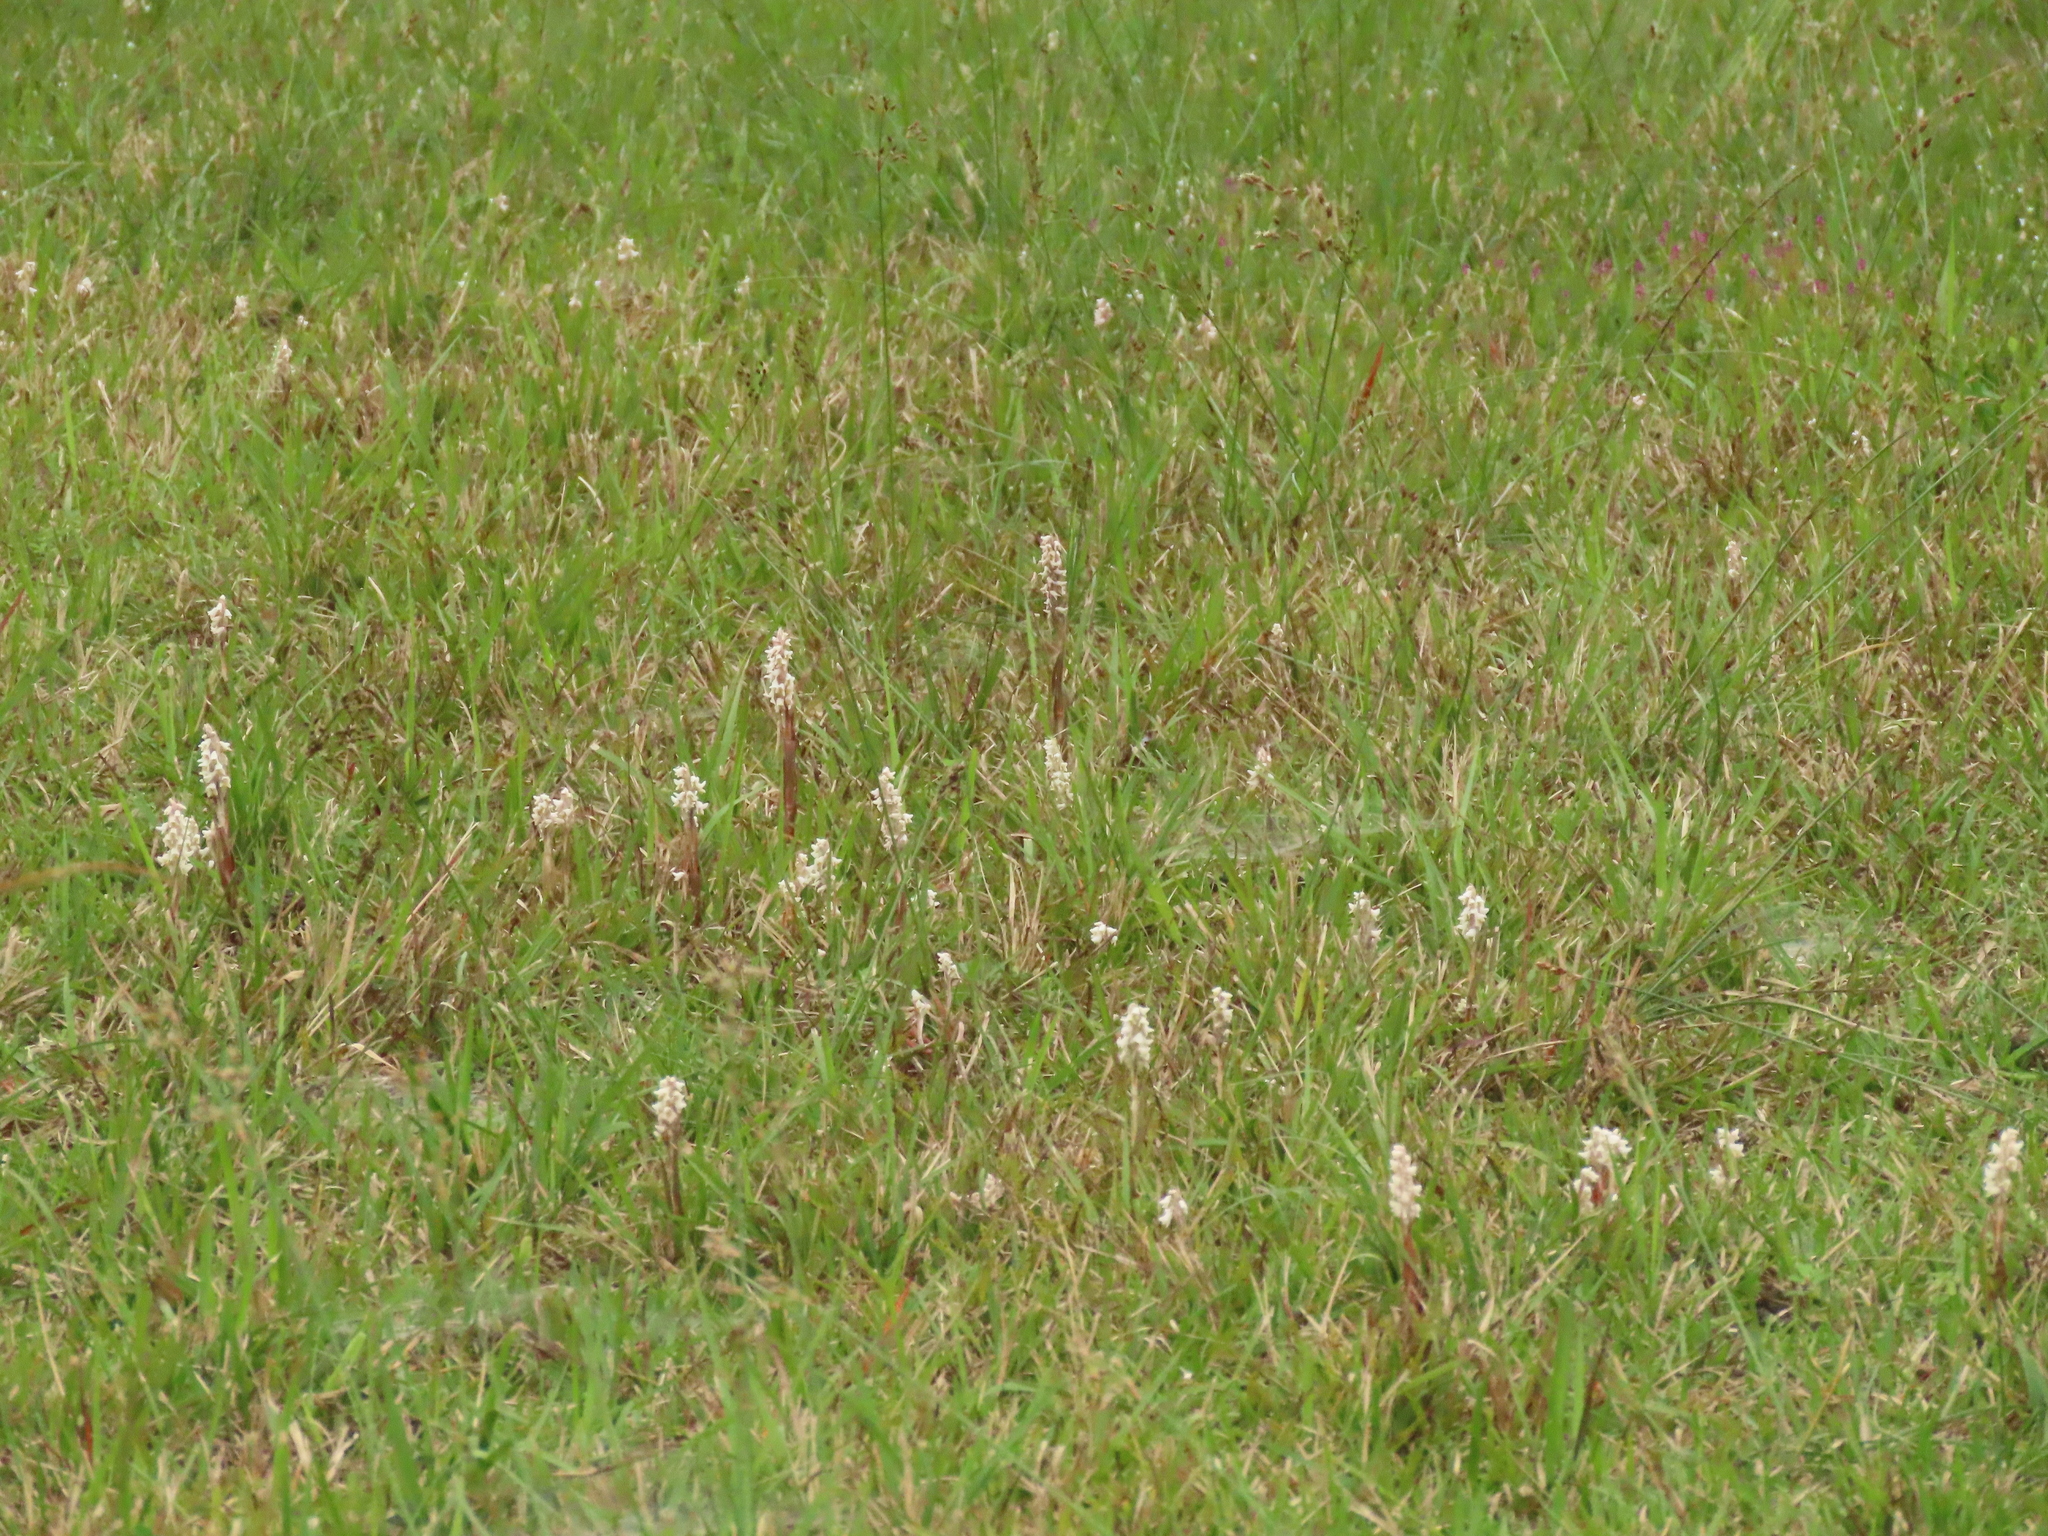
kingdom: Plantae
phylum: Tracheophyta
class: Liliopsida
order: Asparagales
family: Orchidaceae
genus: Zeuxine
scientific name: Zeuxine strateumatica
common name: Soldier's orchid
